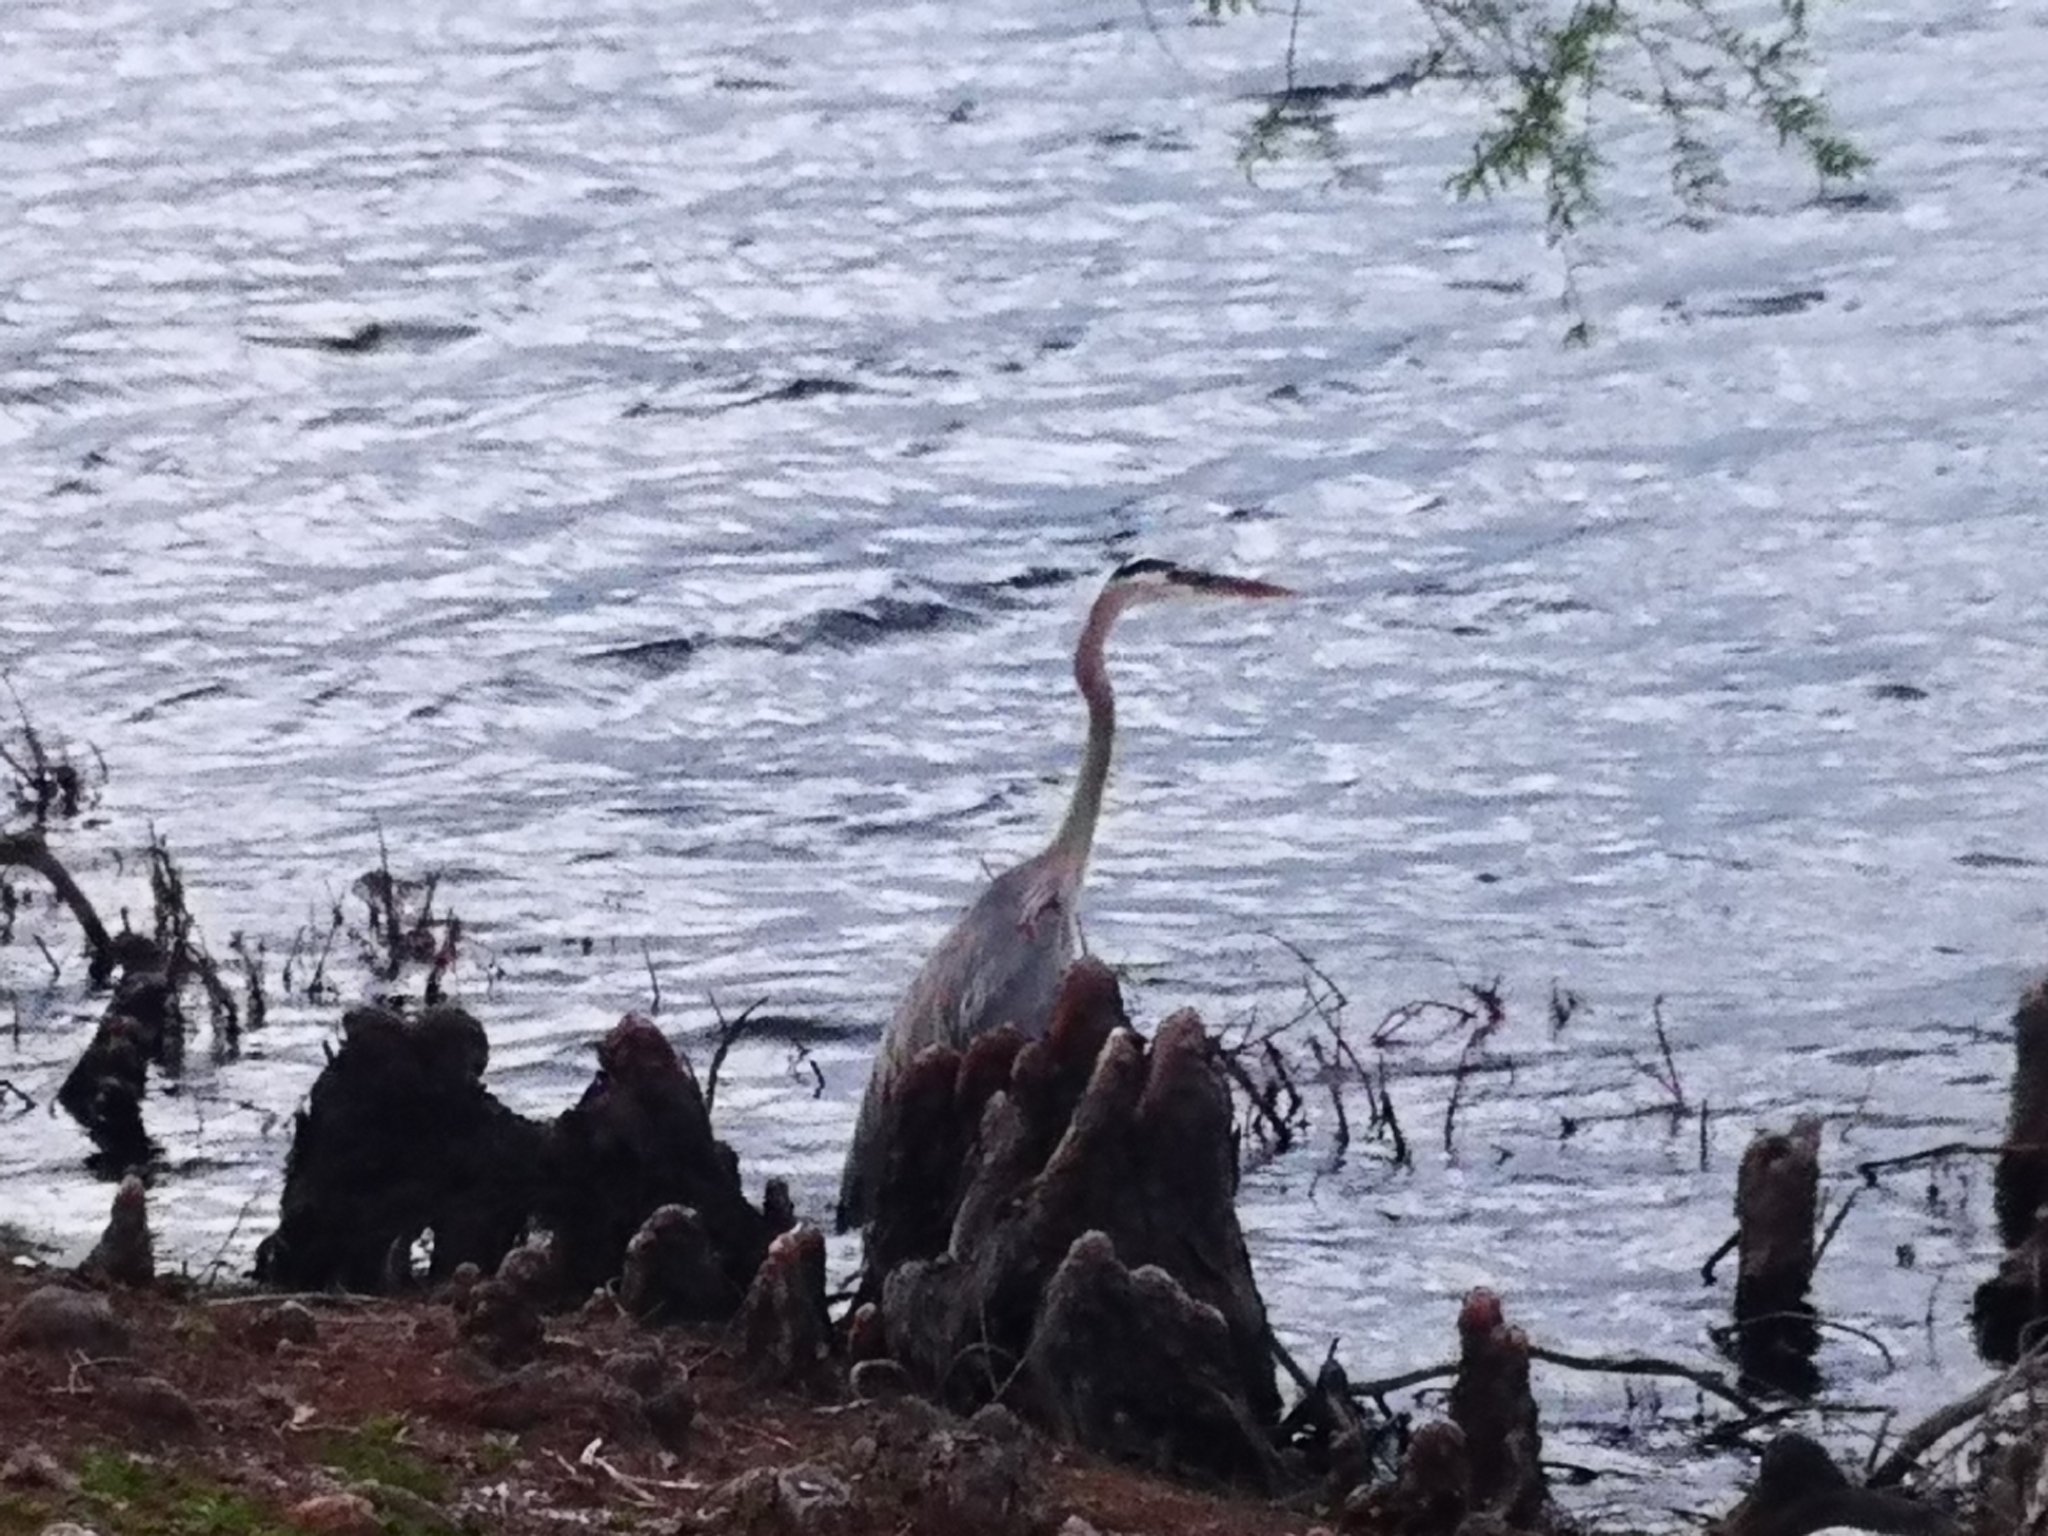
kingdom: Animalia
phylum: Chordata
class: Aves
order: Pelecaniformes
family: Ardeidae
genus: Ardea
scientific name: Ardea herodias
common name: Great blue heron
